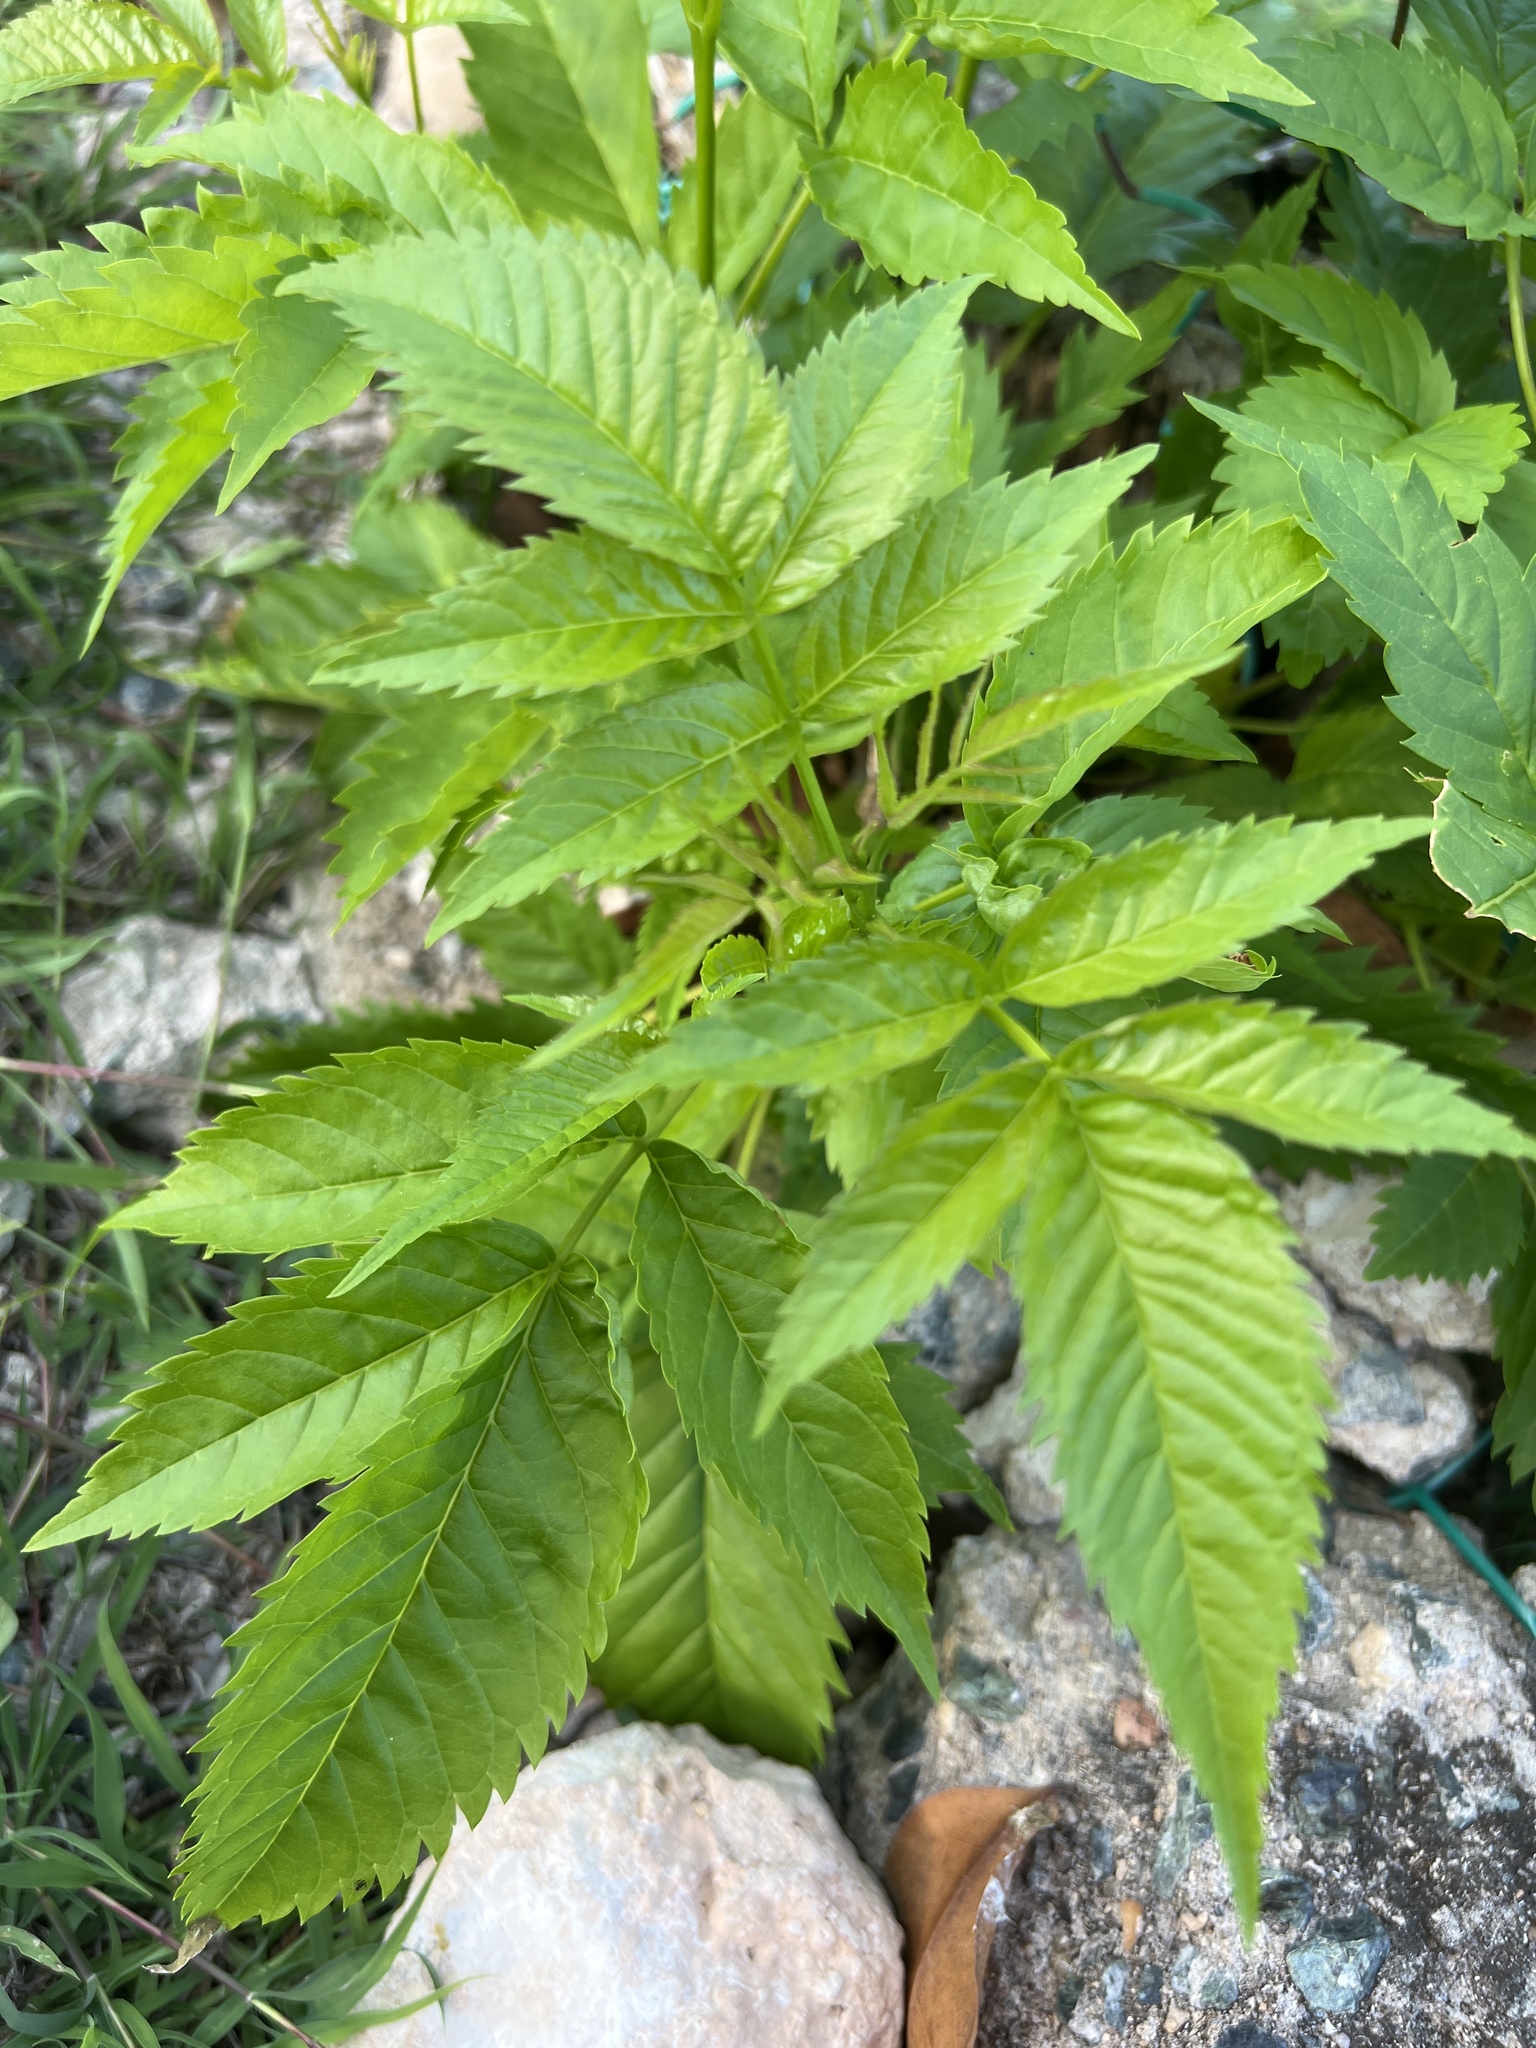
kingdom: Plantae
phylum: Tracheophyta
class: Magnoliopsida
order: Lamiales
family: Bignoniaceae
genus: Tecoma
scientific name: Tecoma stans
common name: Yellow trumpetbush
